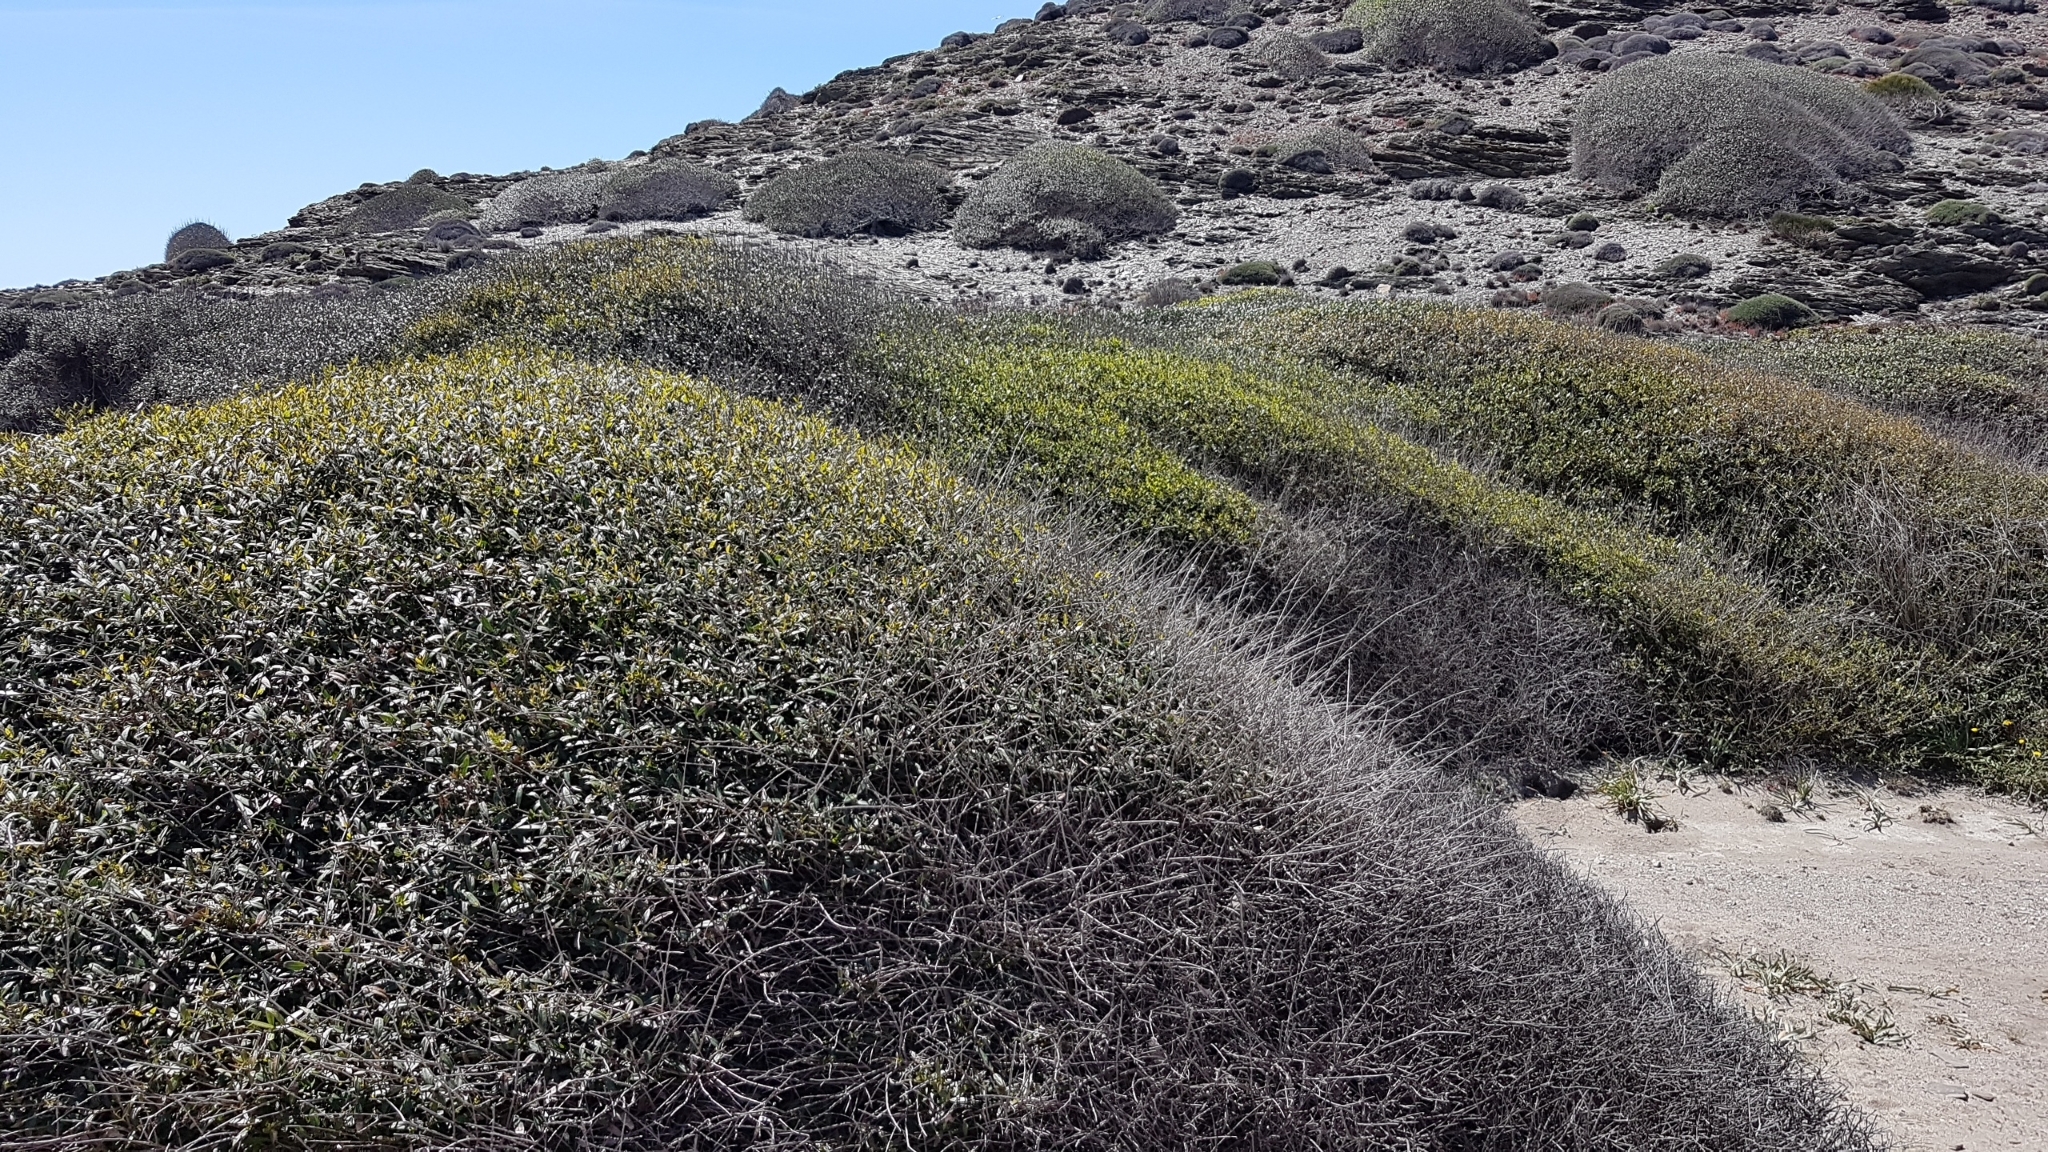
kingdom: Plantae
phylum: Tracheophyta
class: Magnoliopsida
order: Lamiales
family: Oleaceae
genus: Phillyrea
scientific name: Phillyrea angustifolia
